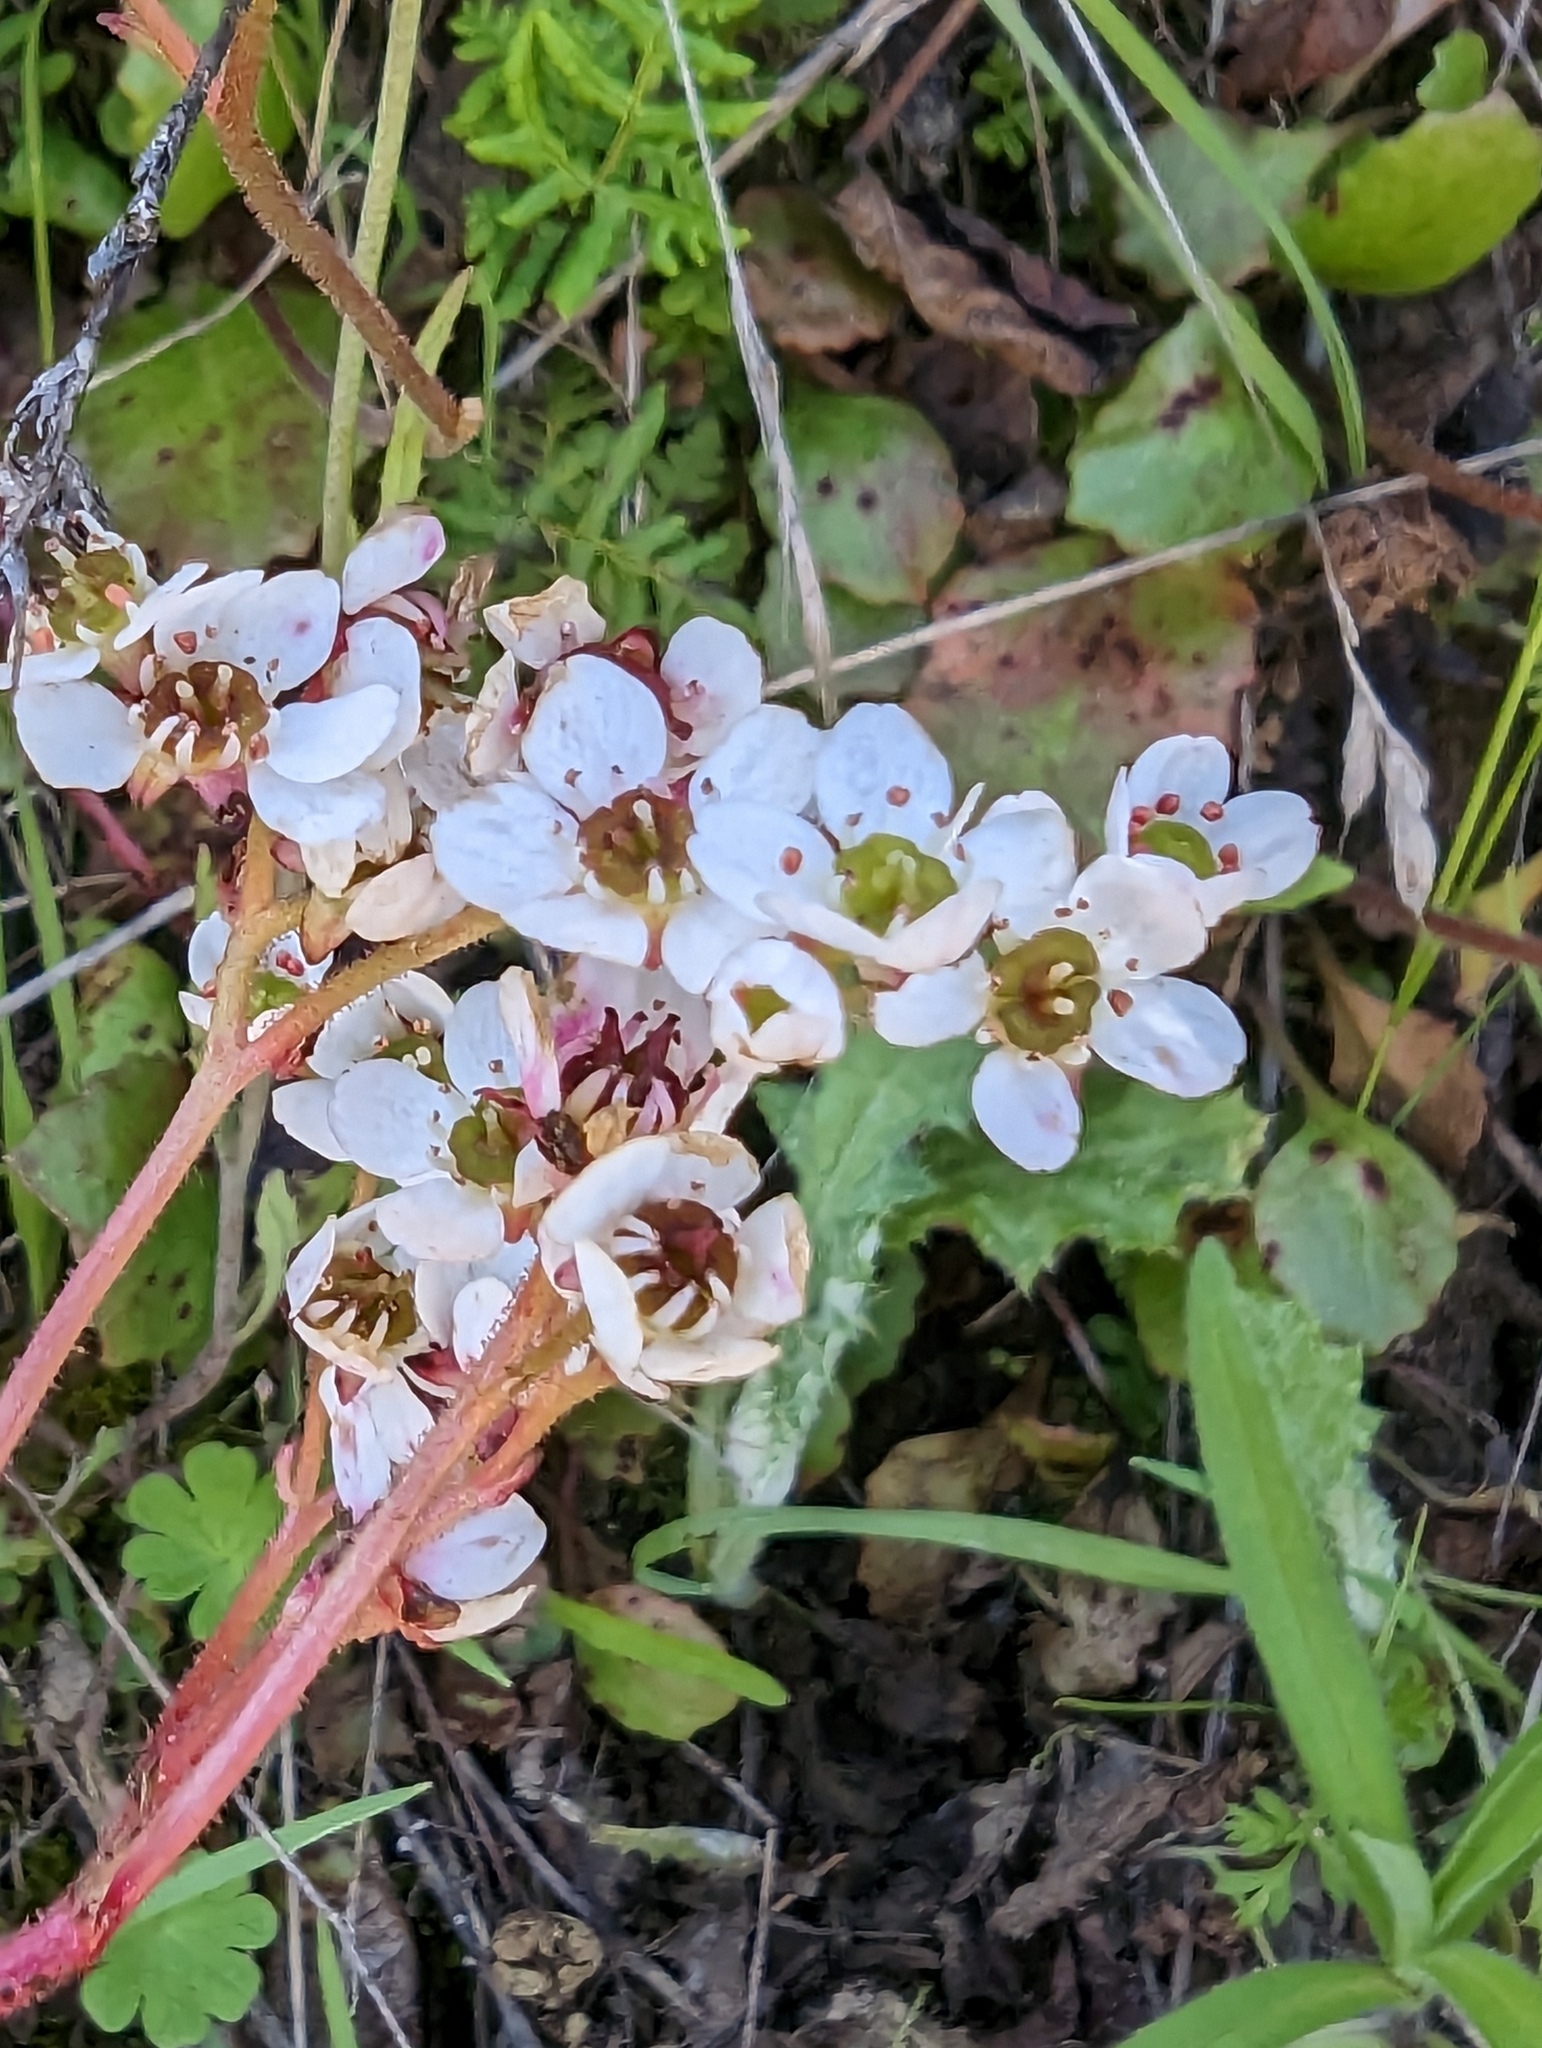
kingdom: Plantae
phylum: Tracheophyta
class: Magnoliopsida
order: Saxifragales
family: Saxifragaceae
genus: Micranthes
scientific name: Micranthes californica
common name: California saxifrage
